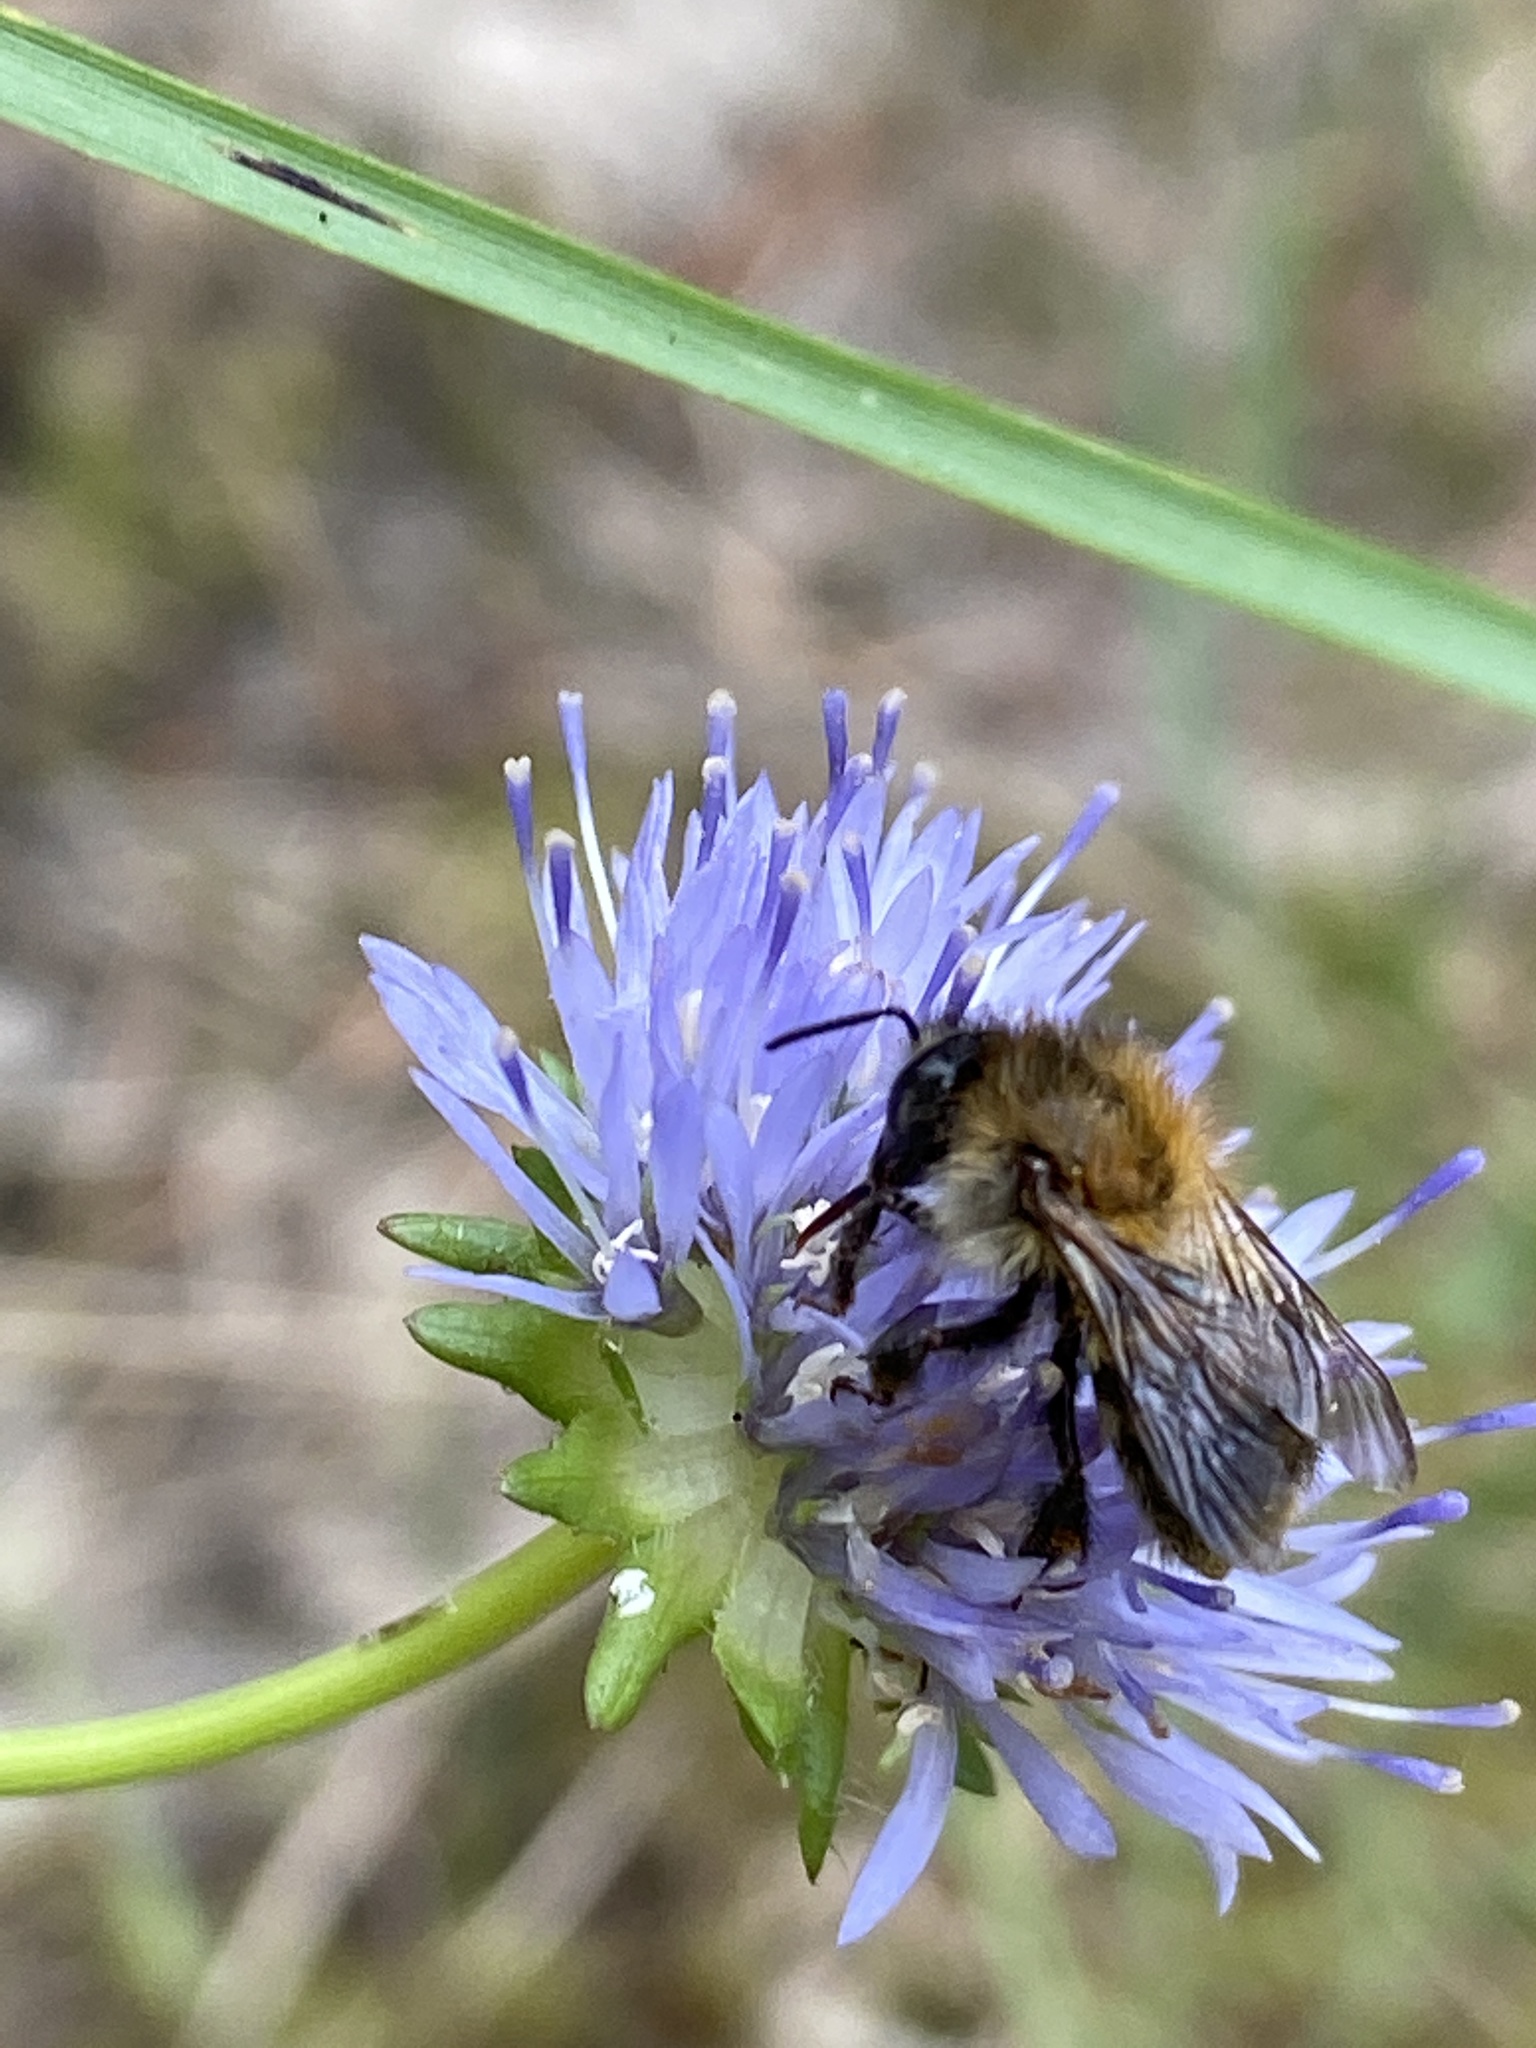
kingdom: Animalia
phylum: Arthropoda
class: Insecta
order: Hymenoptera
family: Apidae
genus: Bombus
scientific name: Bombus pascuorum
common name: Common carder bee
